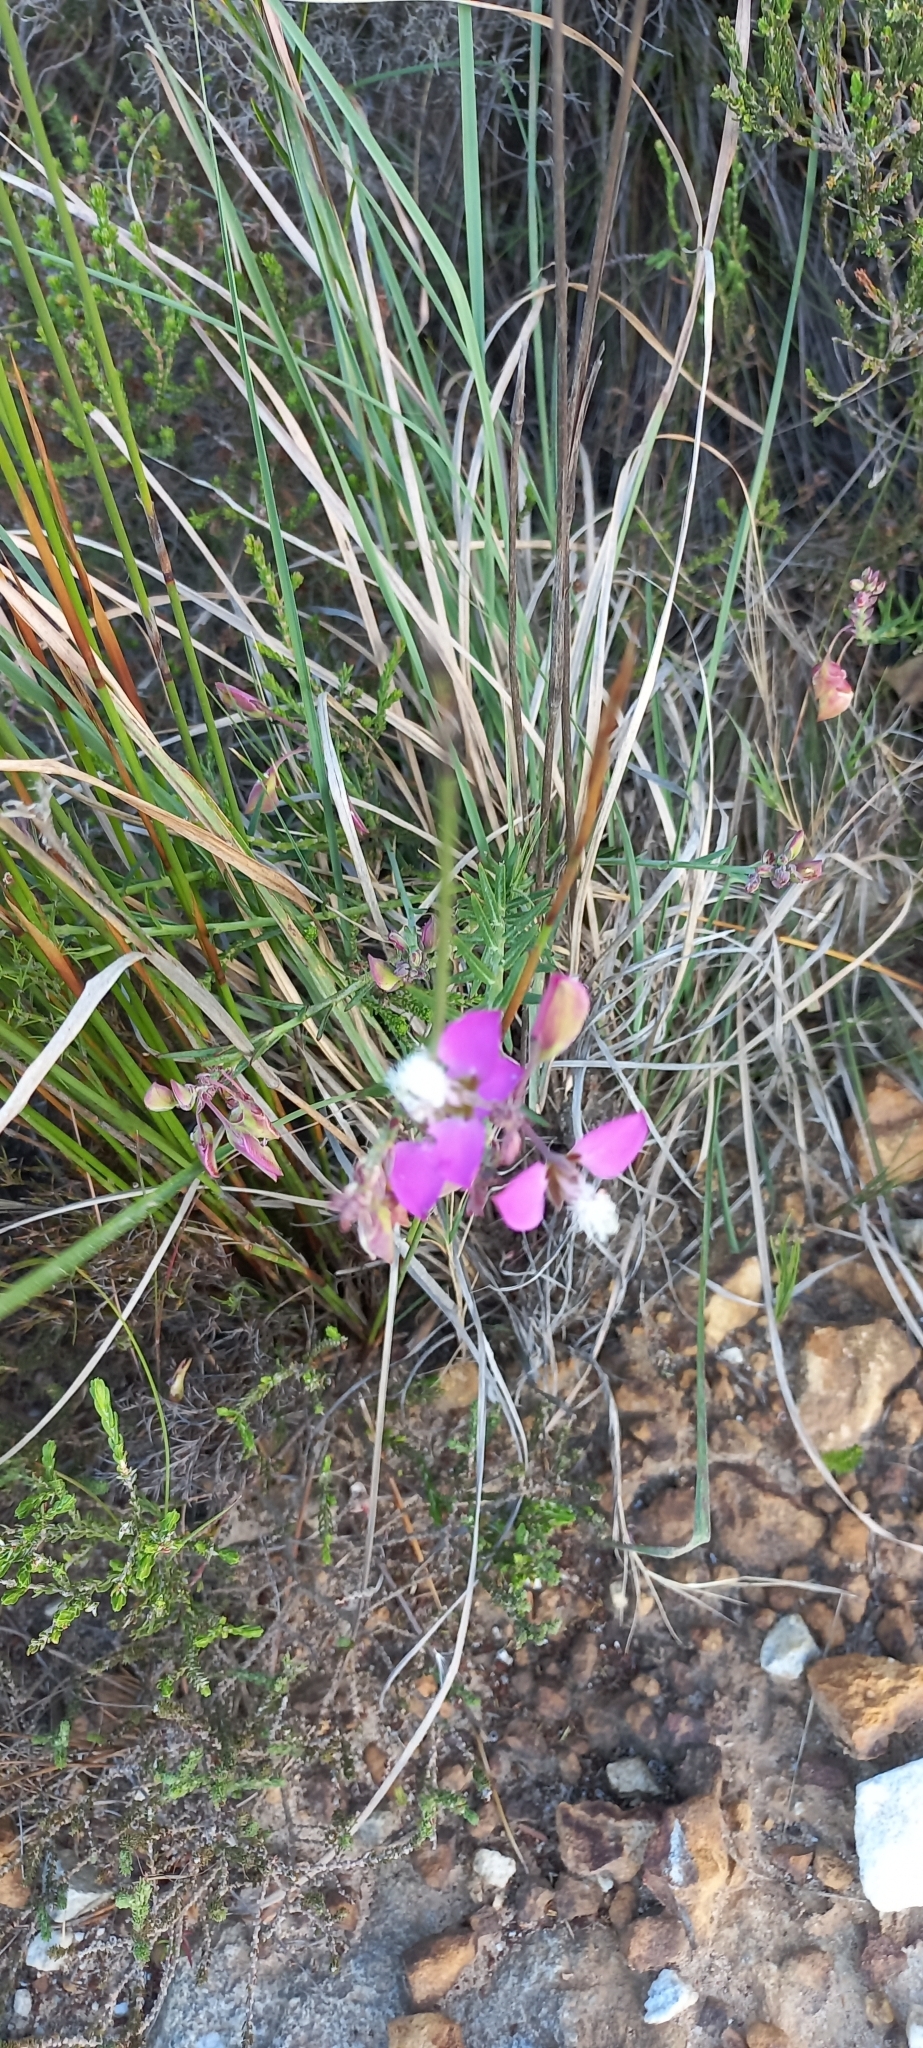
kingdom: Plantae
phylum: Tracheophyta
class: Magnoliopsida
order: Fabales
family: Polygalaceae
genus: Polygala
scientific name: Polygala bracteolata
